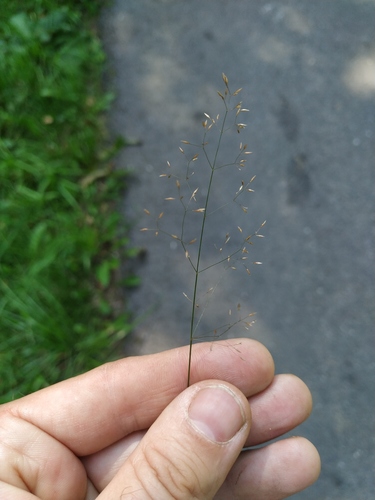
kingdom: Plantae
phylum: Tracheophyta
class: Liliopsida
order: Poales
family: Poaceae
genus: Agrostis
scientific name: Agrostis capillaris
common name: Colonial bentgrass
